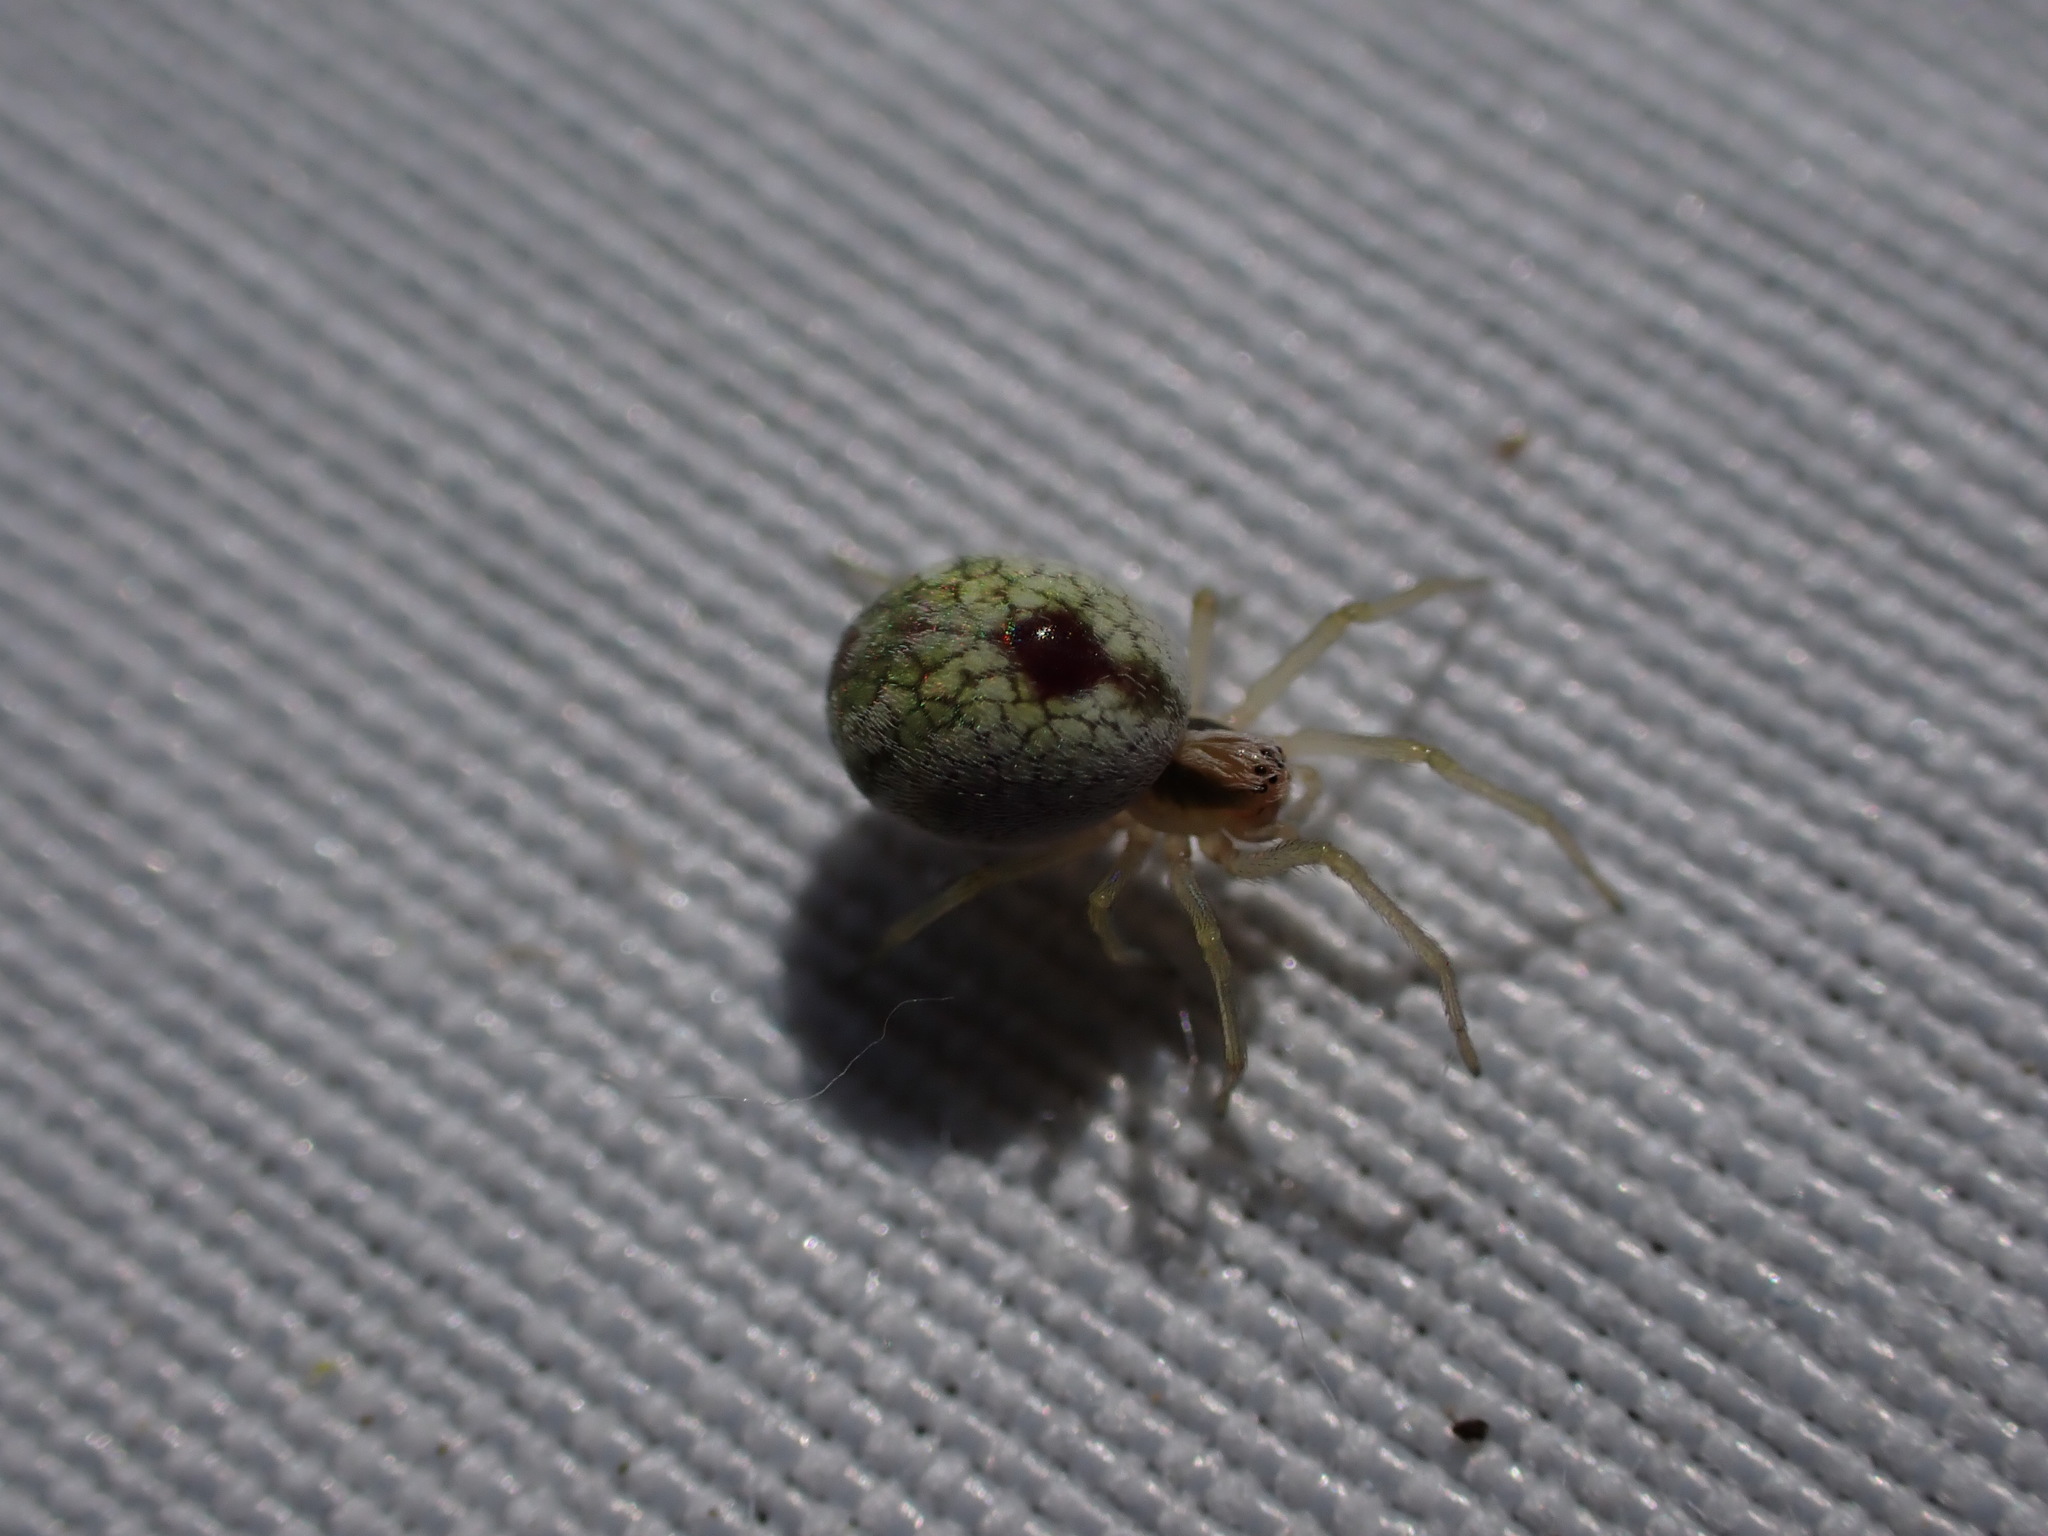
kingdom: Animalia
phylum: Arthropoda
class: Arachnida
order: Araneae
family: Dictynidae
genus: Nigma
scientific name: Nigma puella
